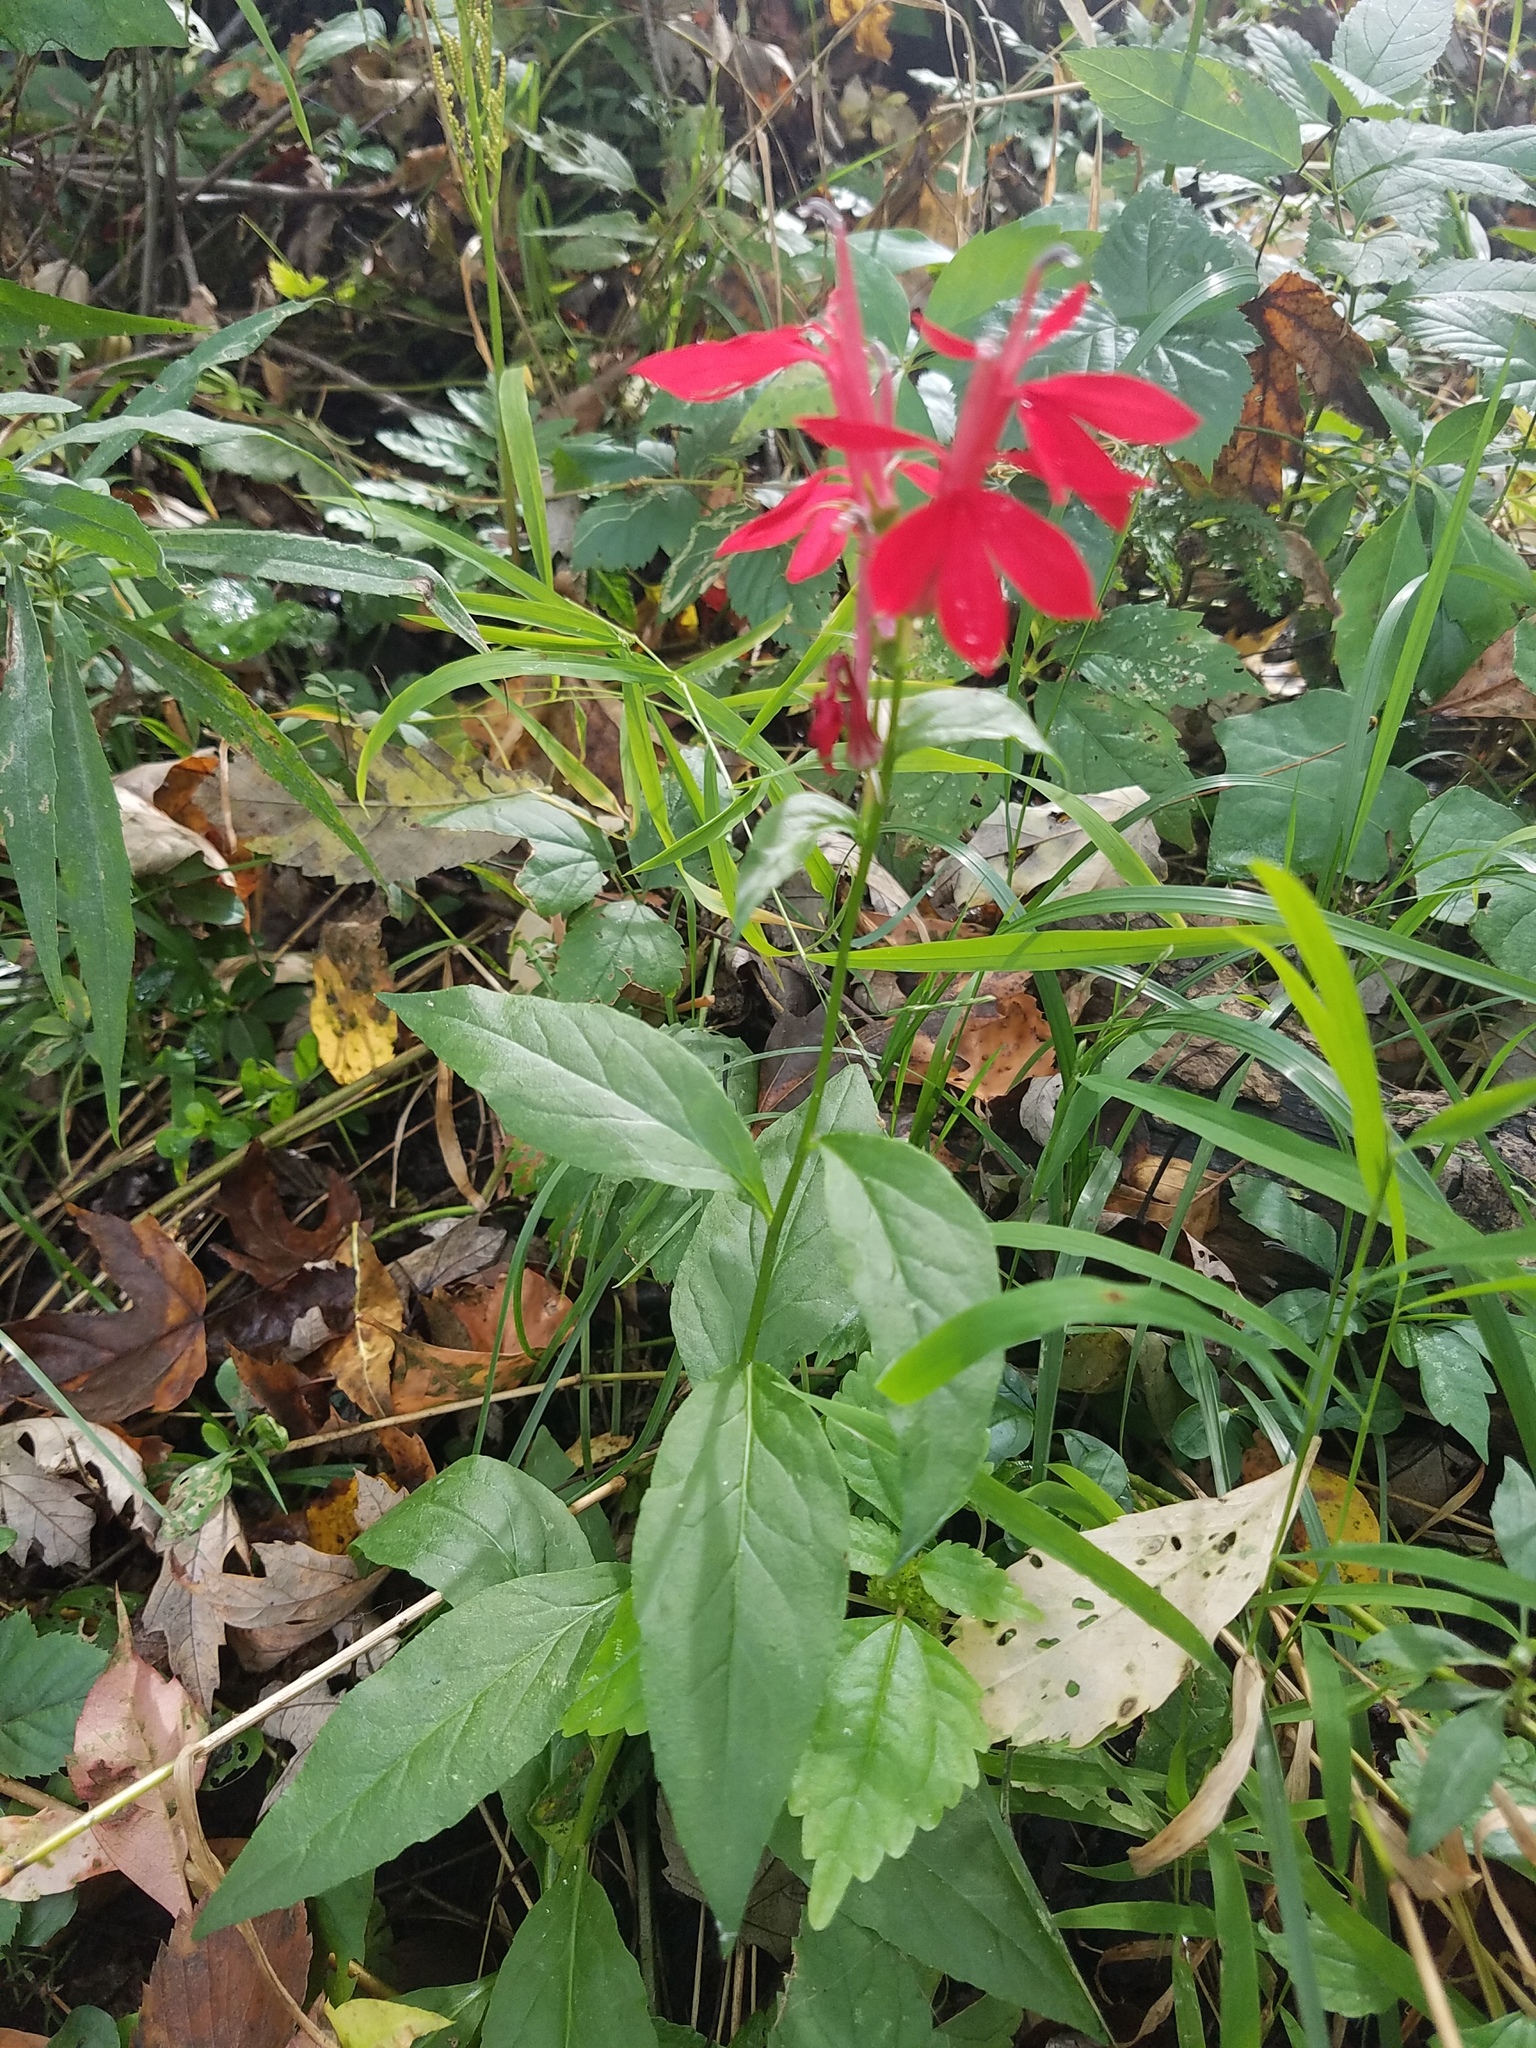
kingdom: Plantae
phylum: Tracheophyta
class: Magnoliopsida
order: Asterales
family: Campanulaceae
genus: Lobelia
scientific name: Lobelia cardinalis
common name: Cardinal flower
